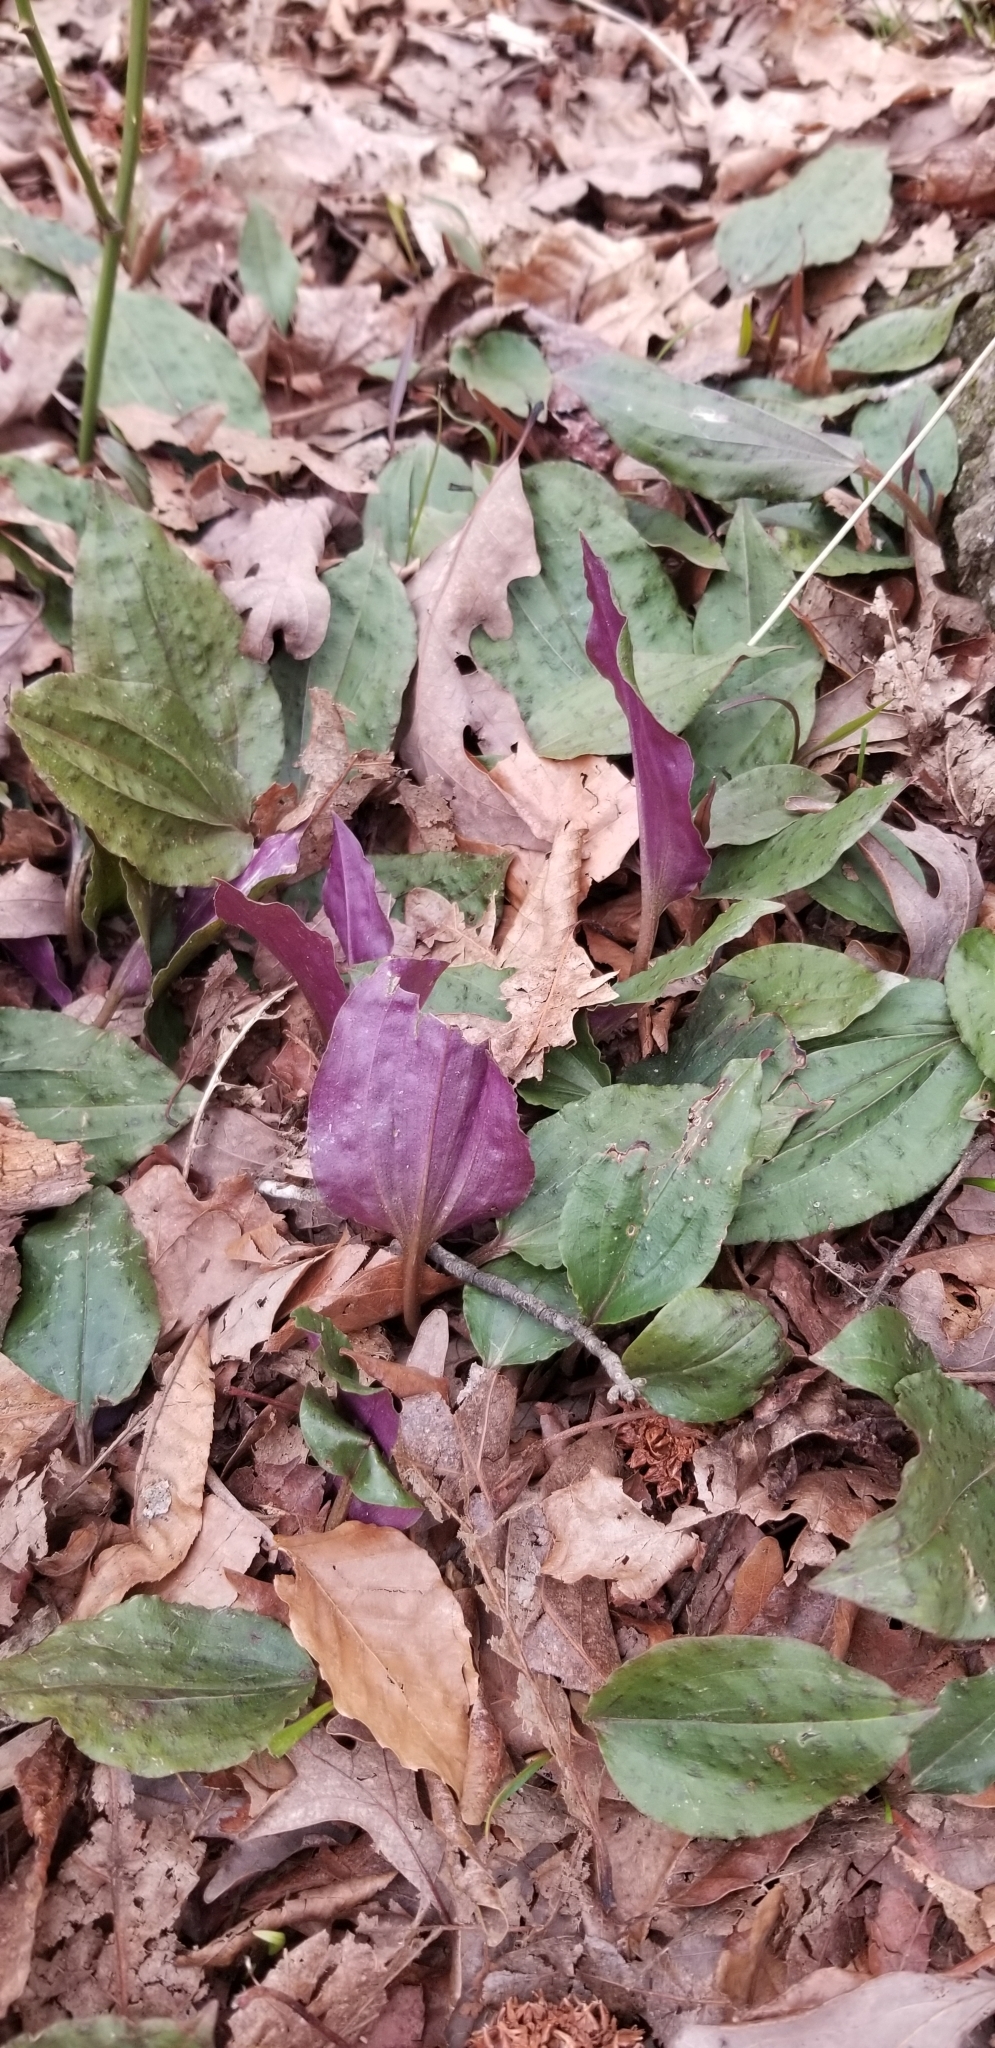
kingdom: Plantae
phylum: Tracheophyta
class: Liliopsida
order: Asparagales
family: Orchidaceae
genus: Tipularia
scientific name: Tipularia discolor
